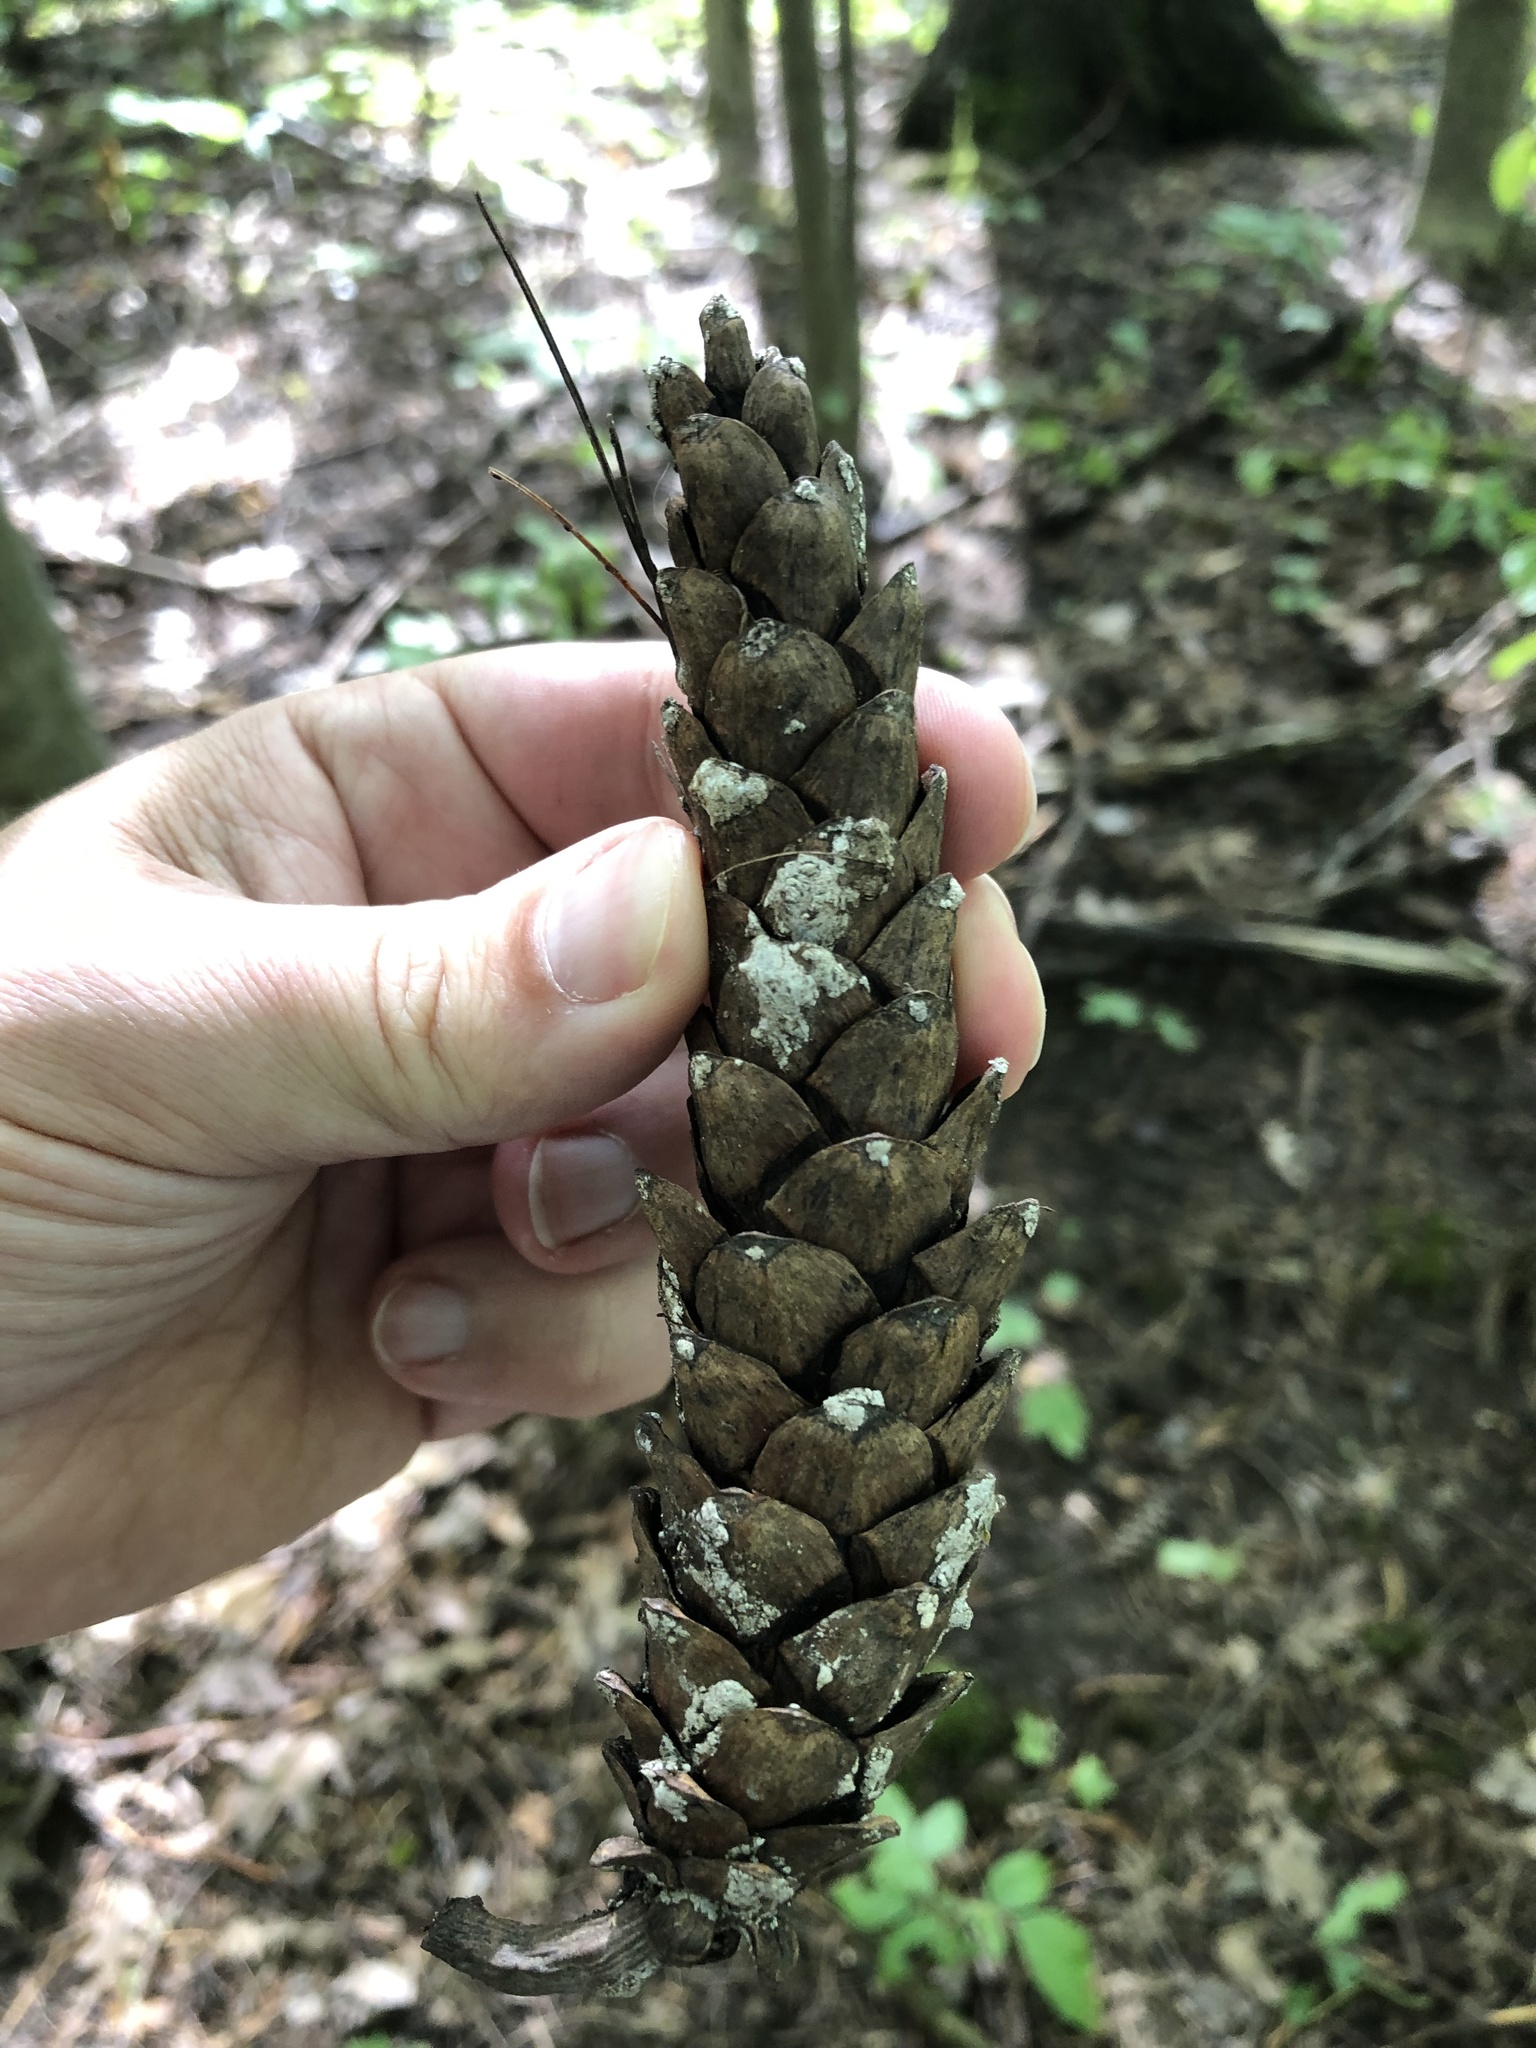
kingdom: Plantae
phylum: Tracheophyta
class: Pinopsida
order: Pinales
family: Pinaceae
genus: Pinus
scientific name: Pinus strobus
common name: Weymouth pine
